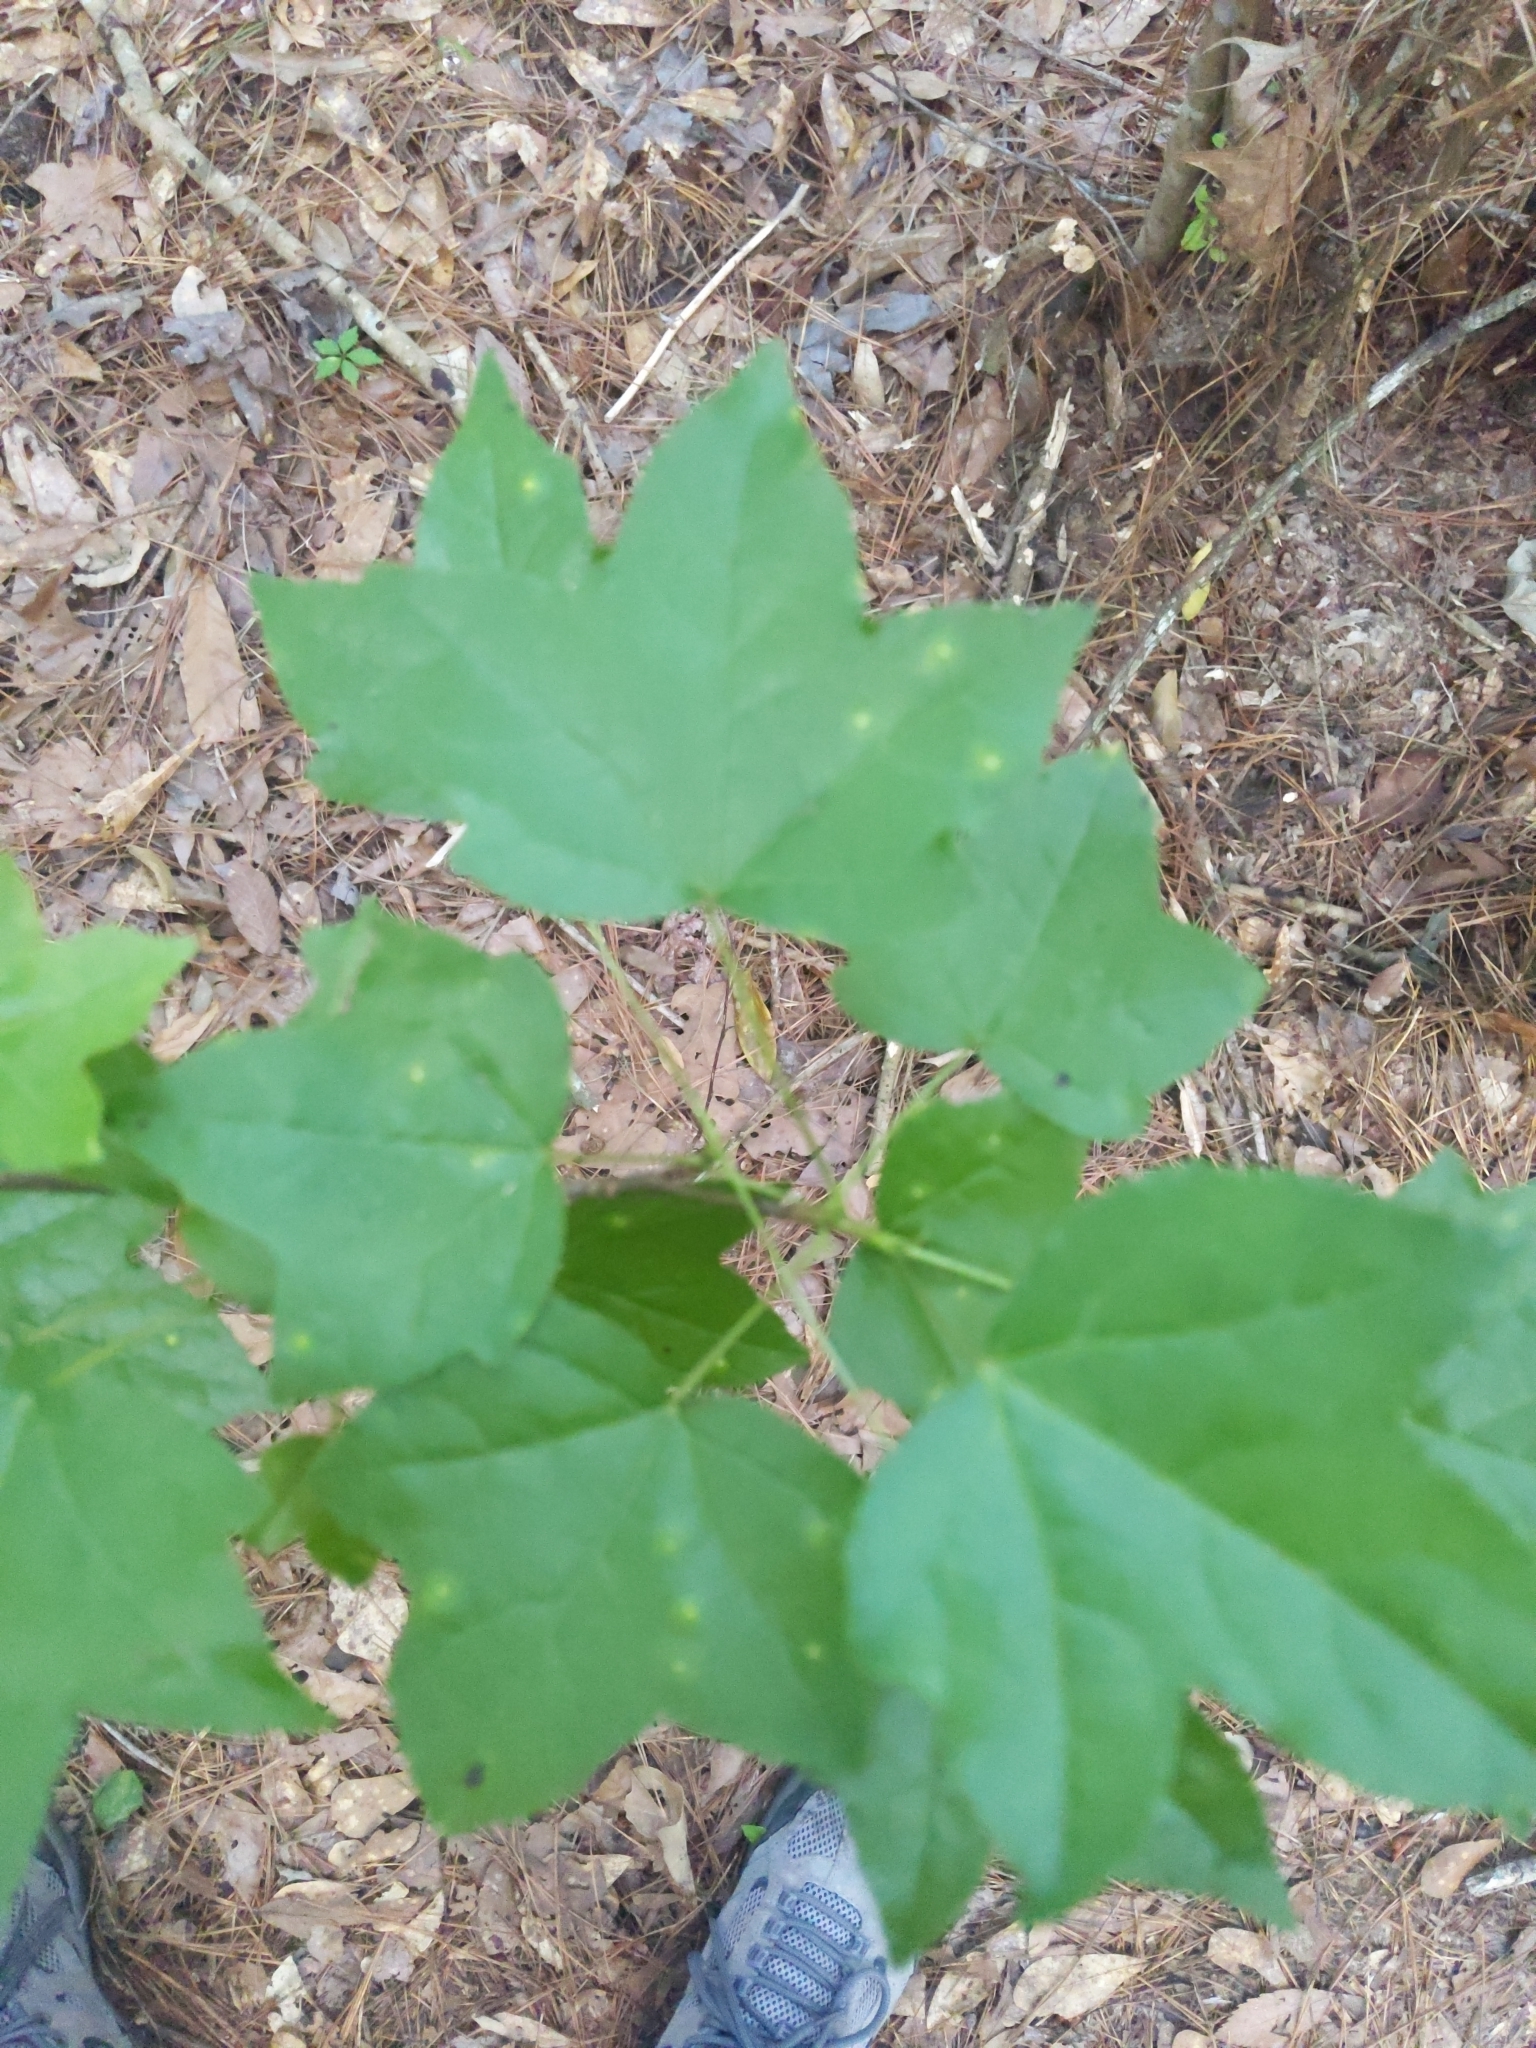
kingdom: Plantae
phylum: Tracheophyta
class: Magnoliopsida
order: Saxifragales
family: Altingiaceae
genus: Liquidambar
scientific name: Liquidambar styraciflua
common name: Sweet gum
